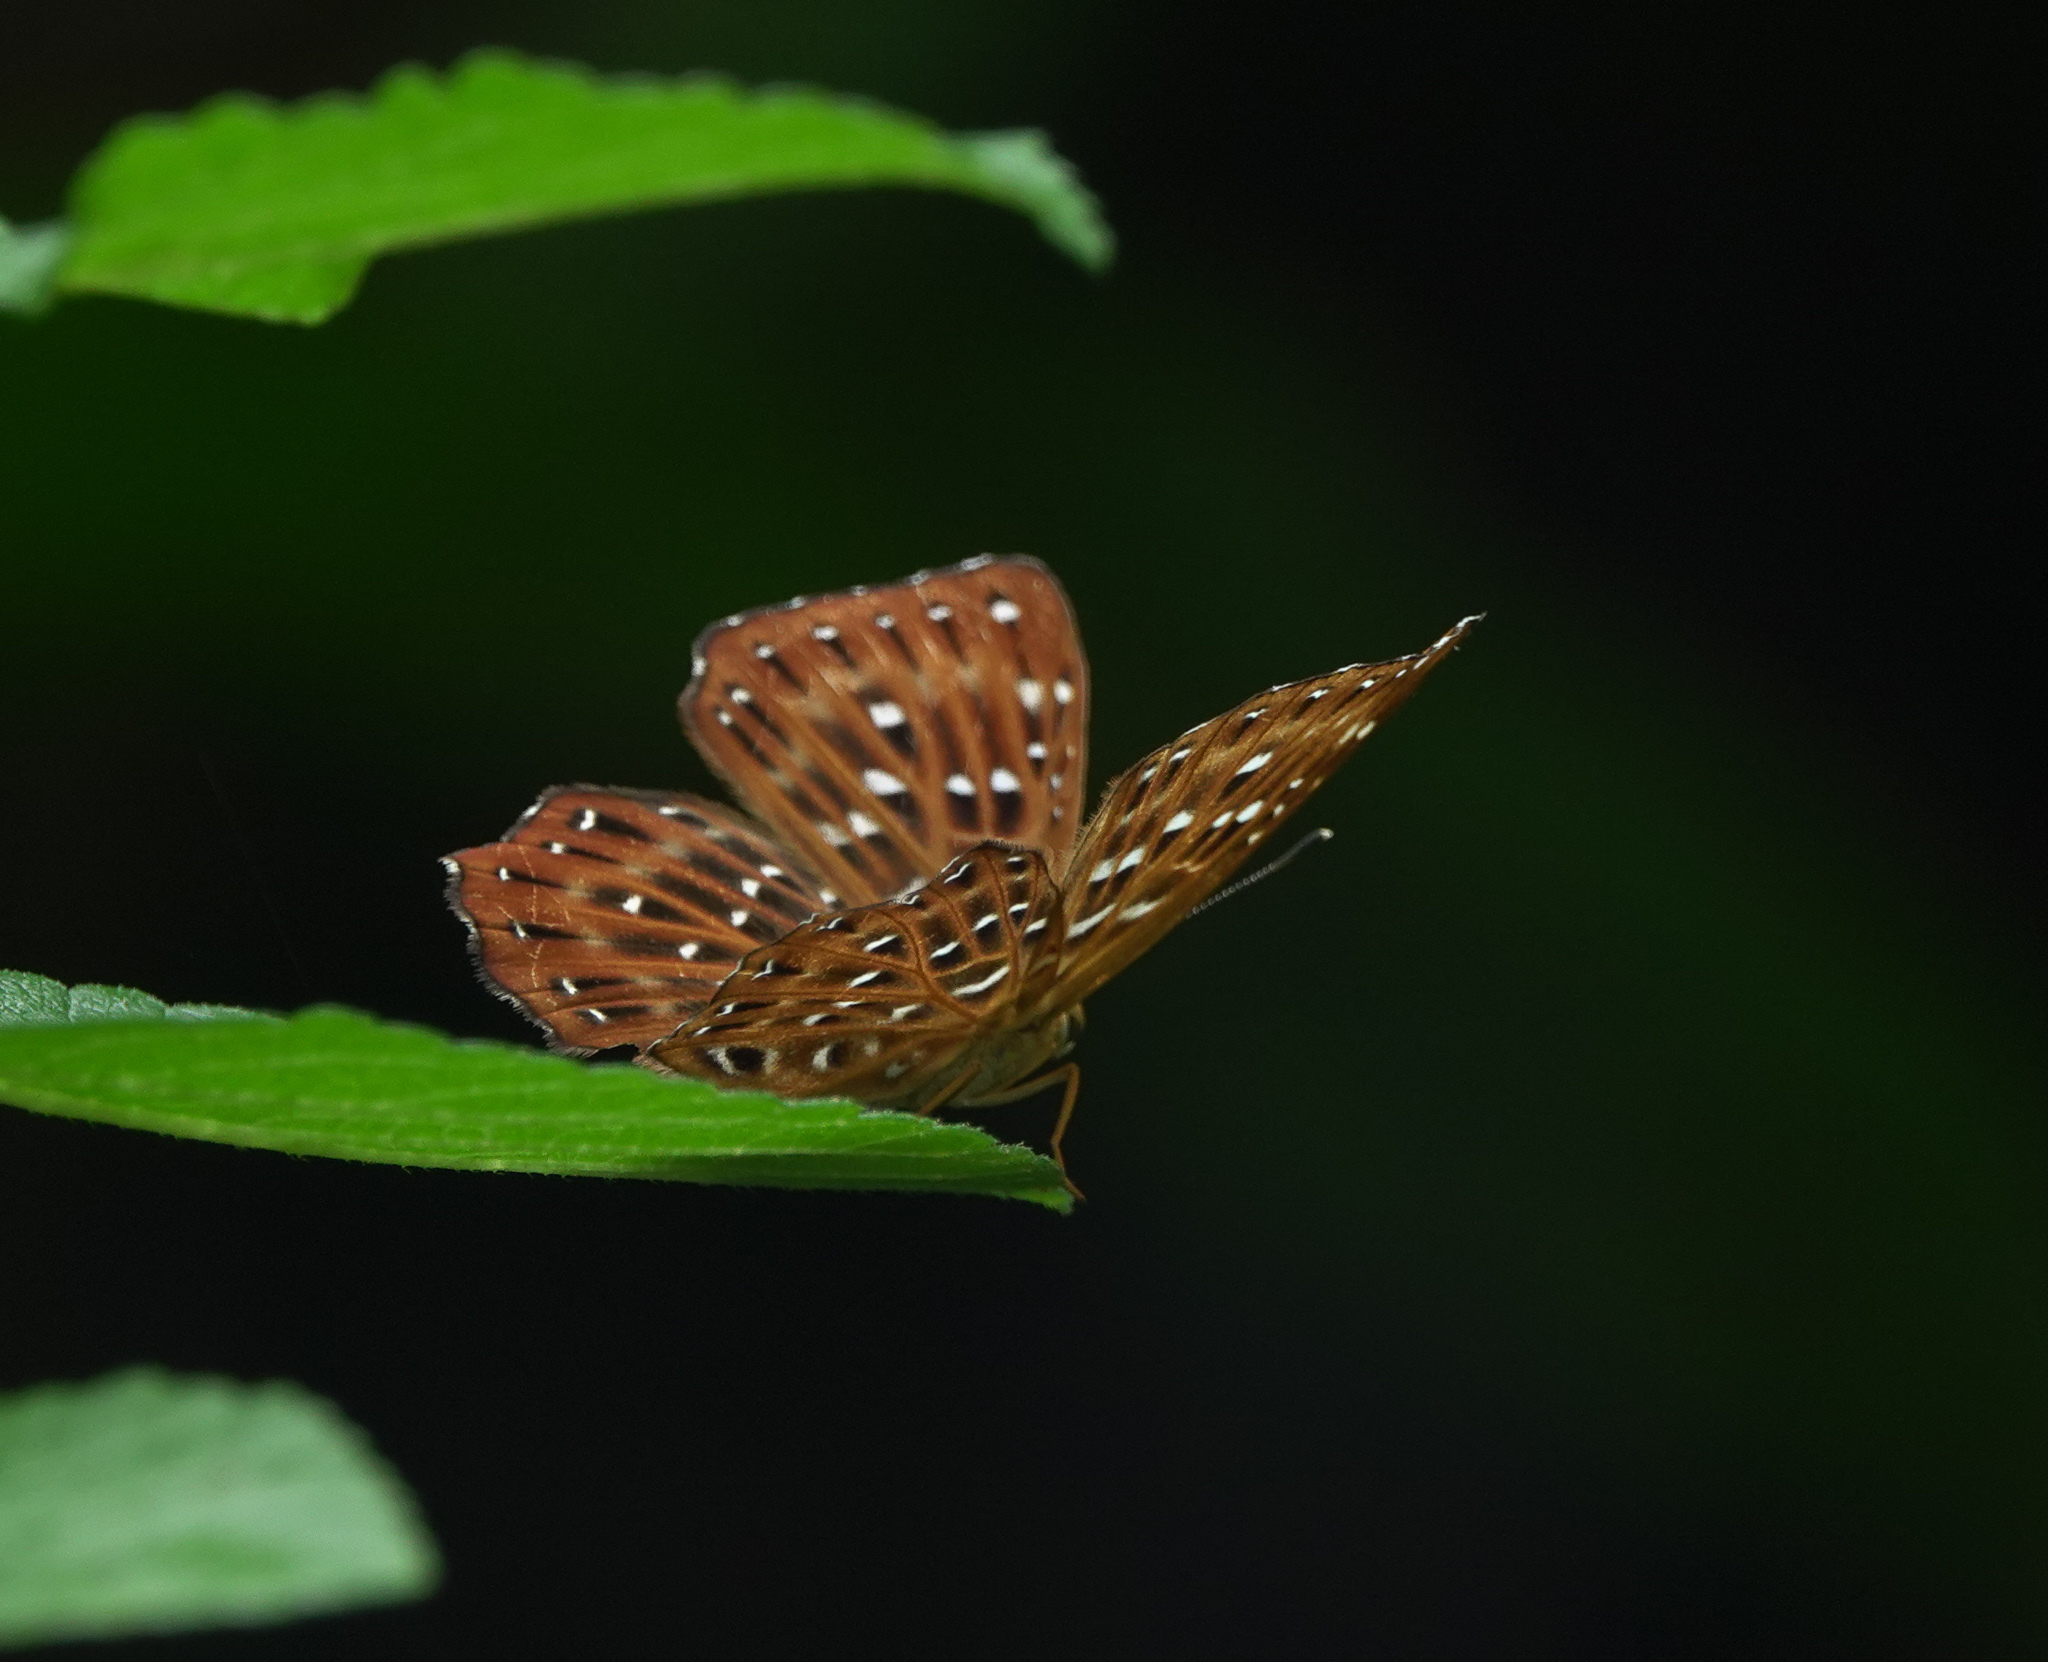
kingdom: Animalia
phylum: Arthropoda
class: Insecta
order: Lepidoptera
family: Riodinidae
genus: Zemeros
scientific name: Zemeros flegyas
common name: Punchinello
